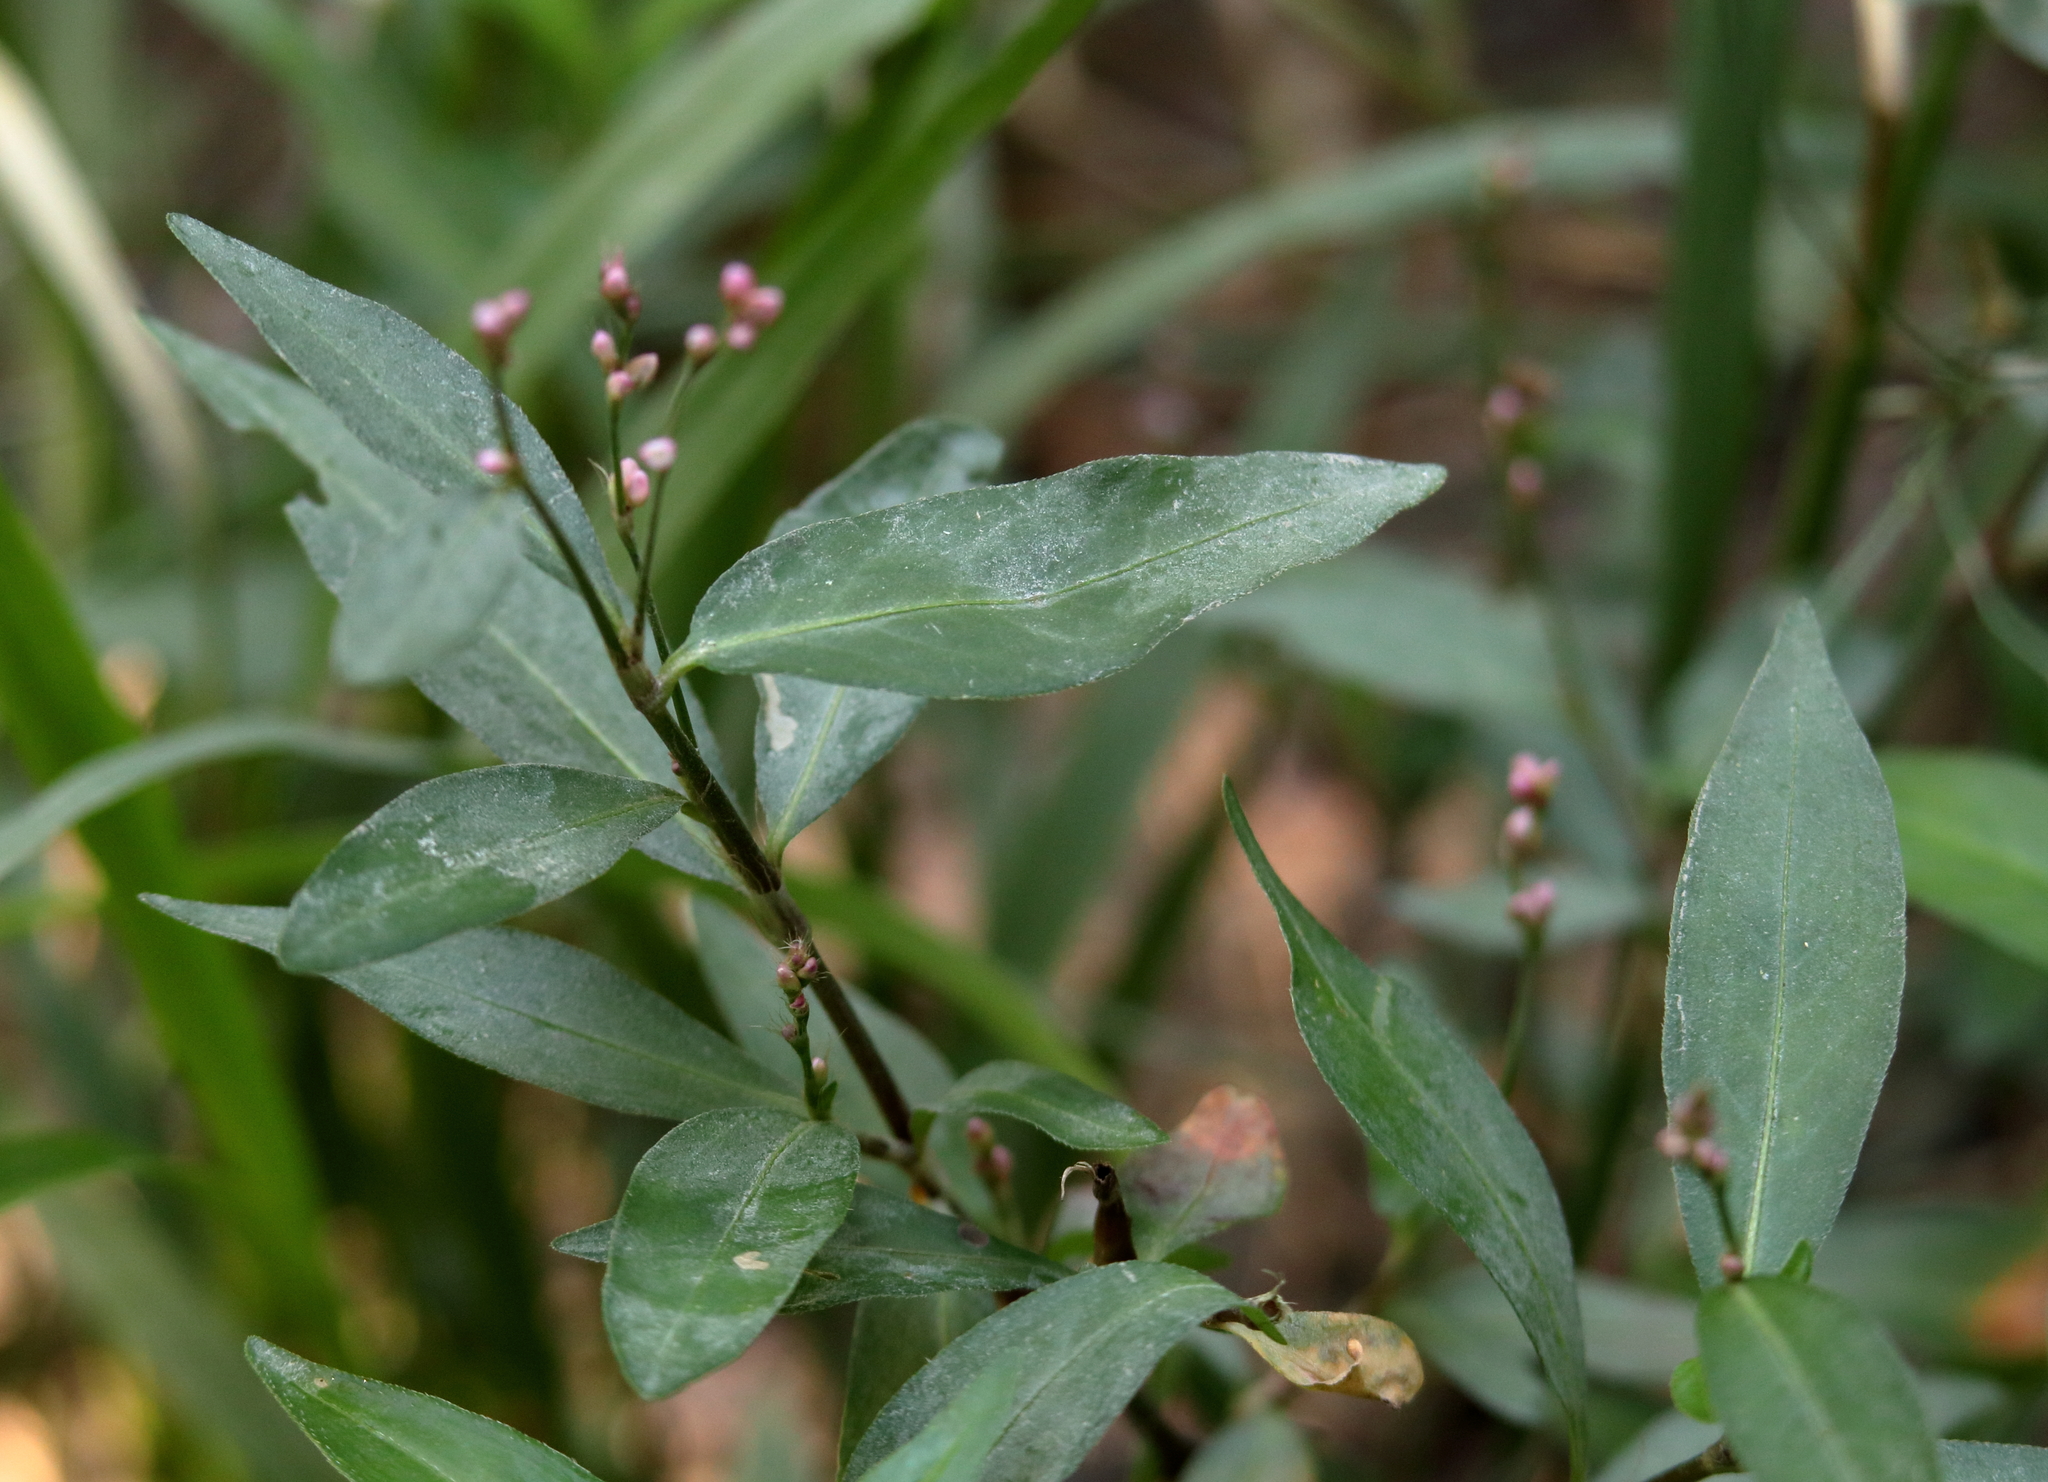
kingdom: Plantae
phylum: Tracheophyta
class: Magnoliopsida
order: Caryophyllales
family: Polygonaceae
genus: Persicaria
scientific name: Persicaria longiseta
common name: Bristly lady's-thumb
